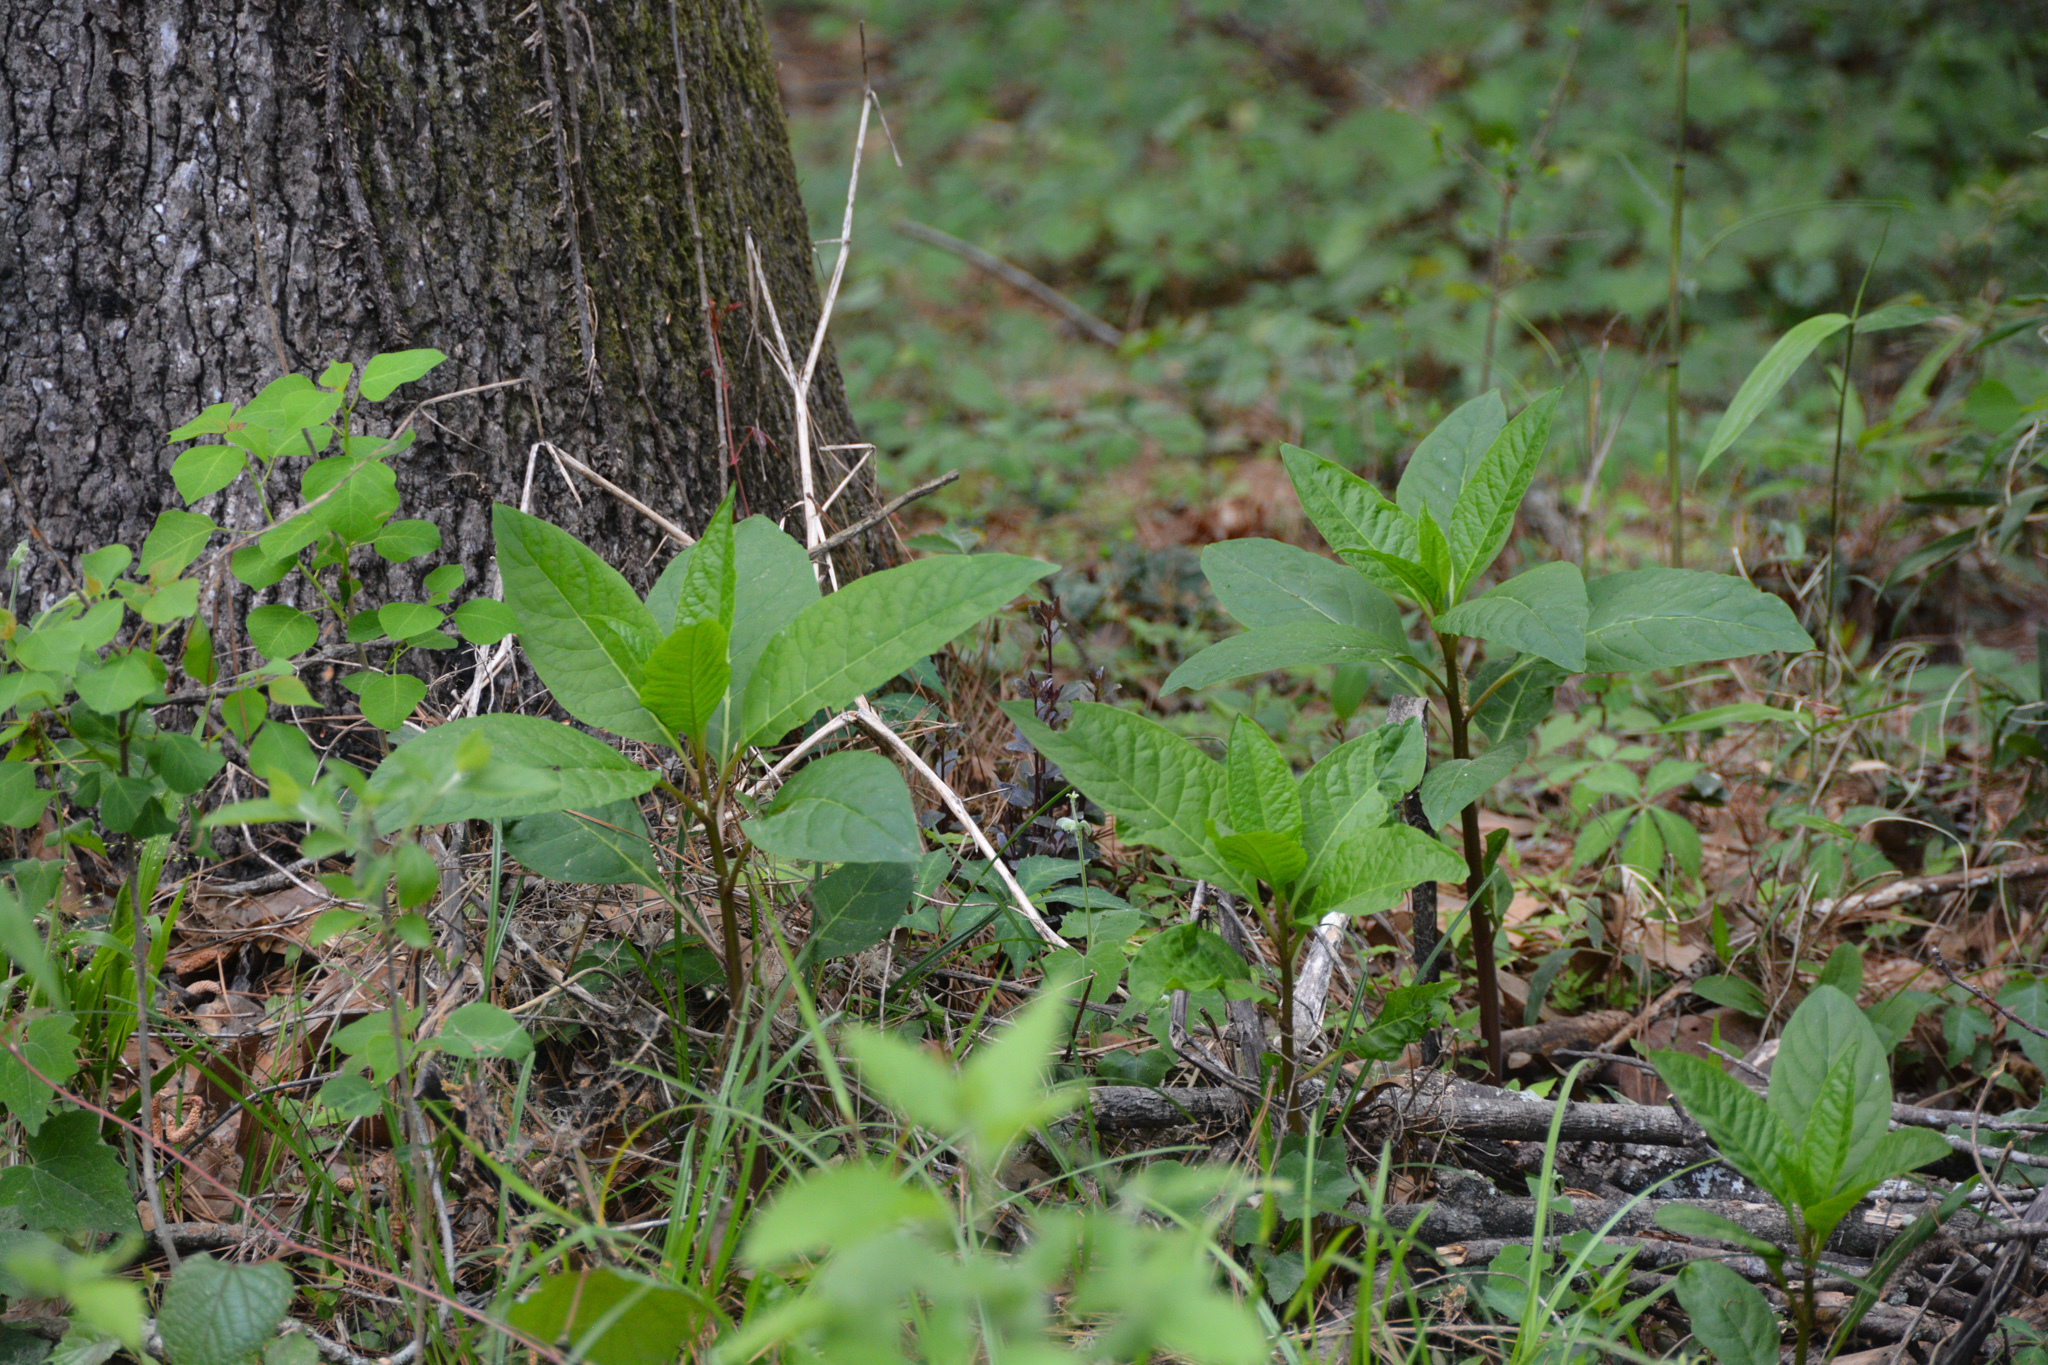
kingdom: Plantae
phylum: Tracheophyta
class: Magnoliopsida
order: Caryophyllales
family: Phytolaccaceae
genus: Phytolacca
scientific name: Phytolacca americana
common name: American pokeweed
